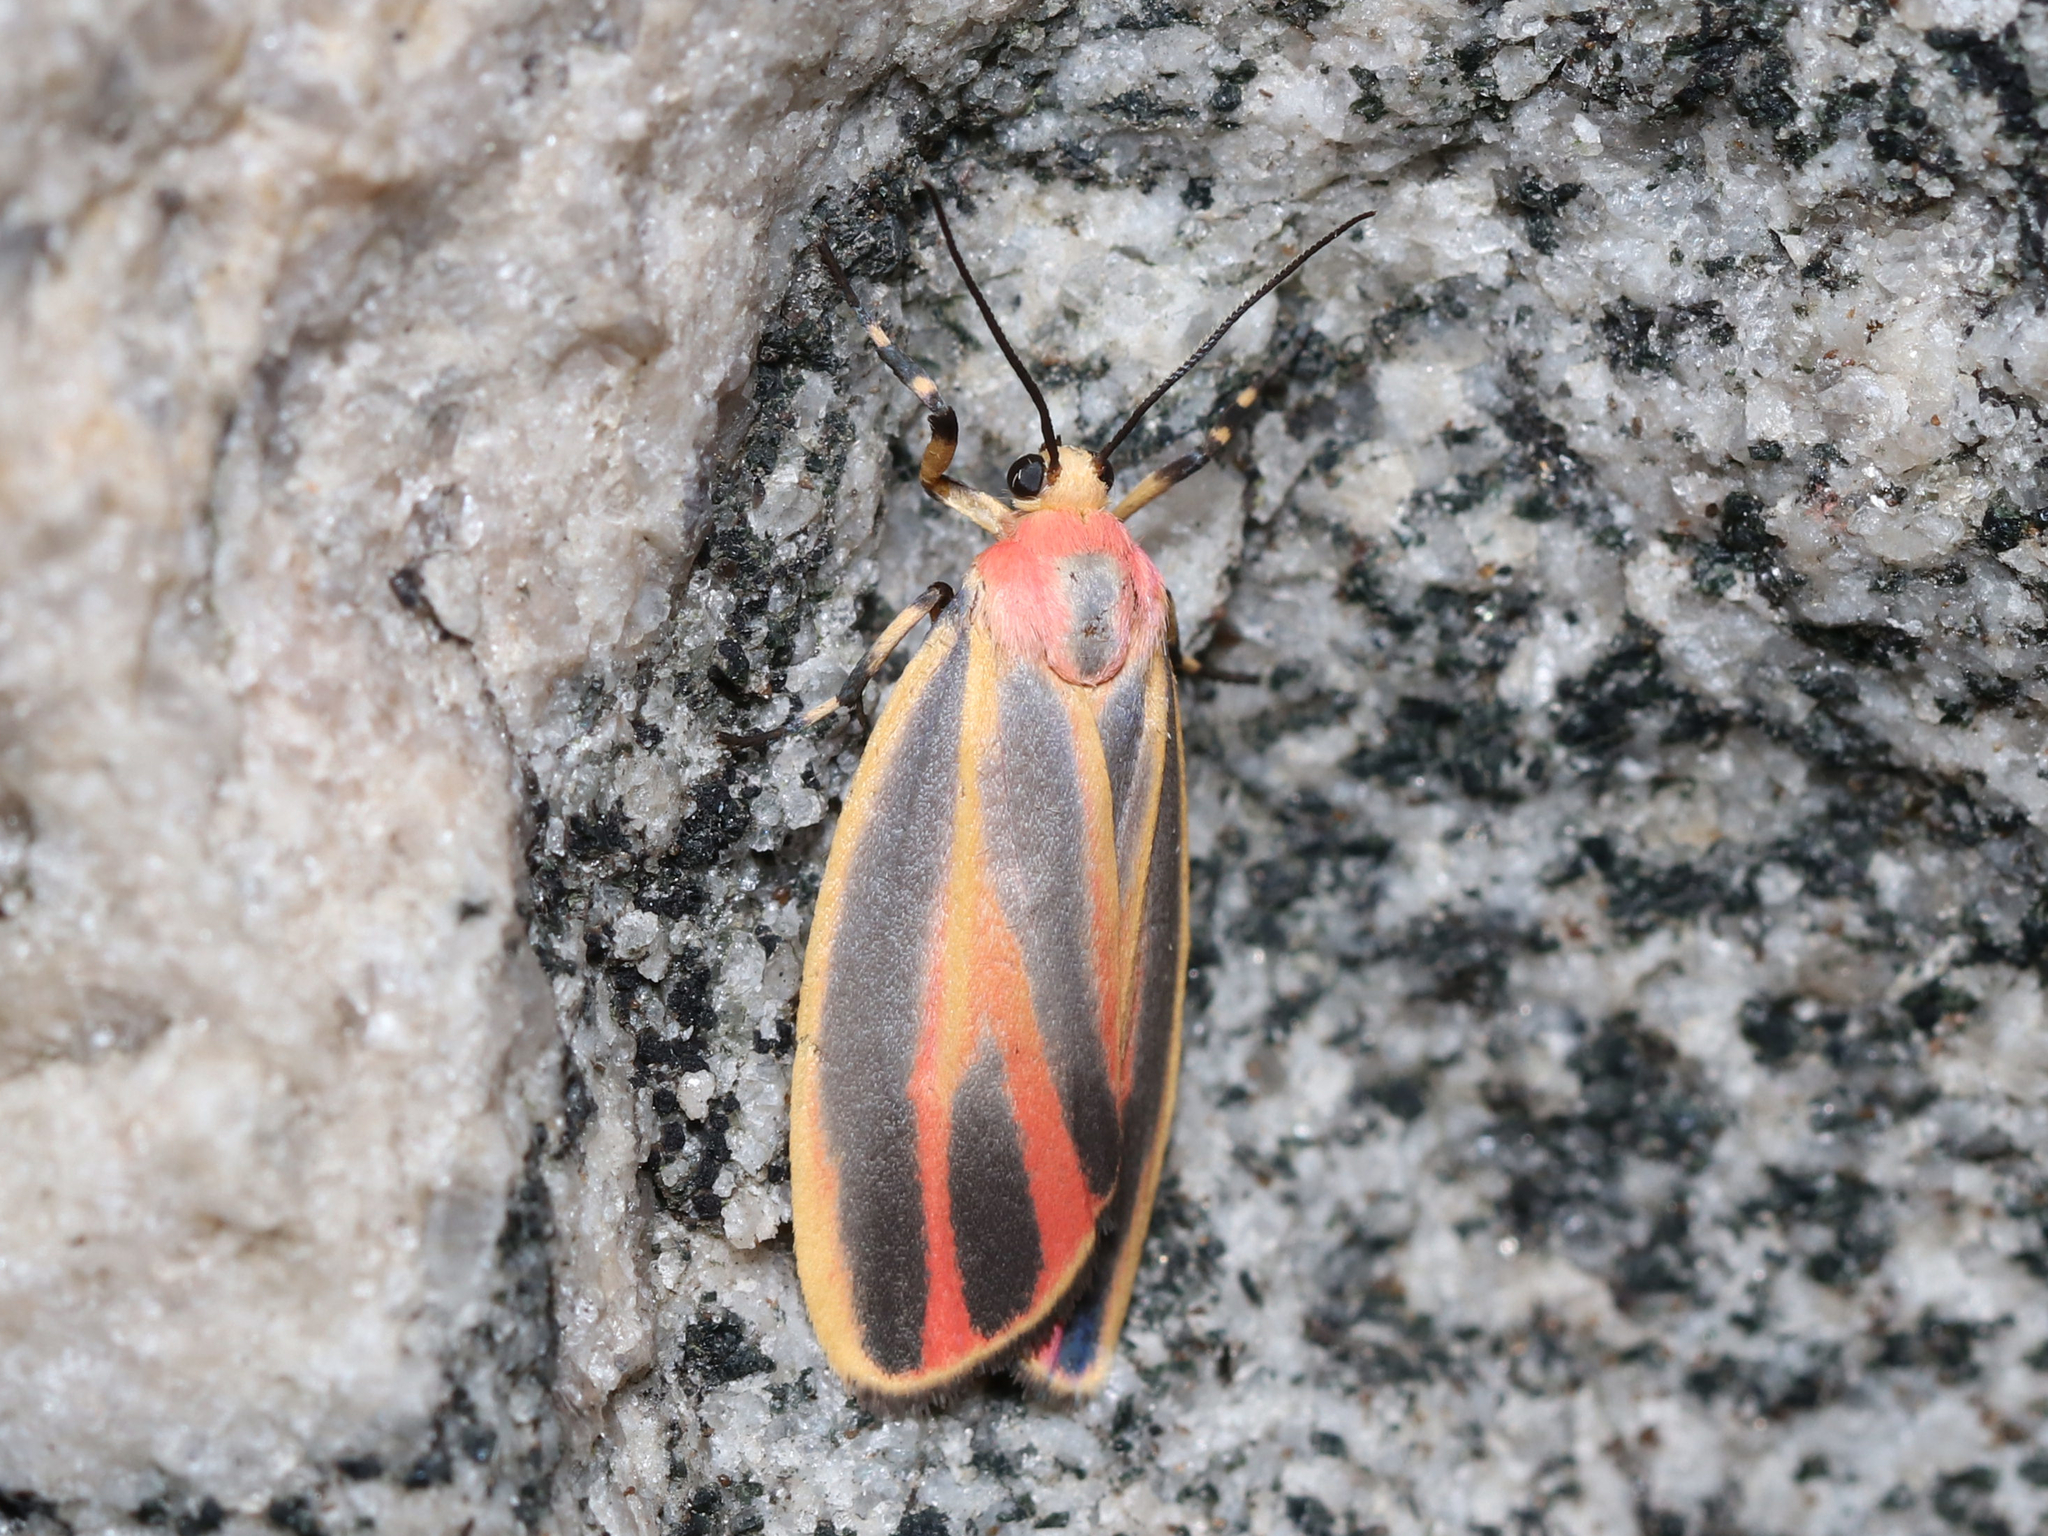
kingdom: Animalia
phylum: Arthropoda
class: Insecta
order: Lepidoptera
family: Erebidae
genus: Hypoprepia
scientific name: Hypoprepia fucosa
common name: Painted lichen moth
